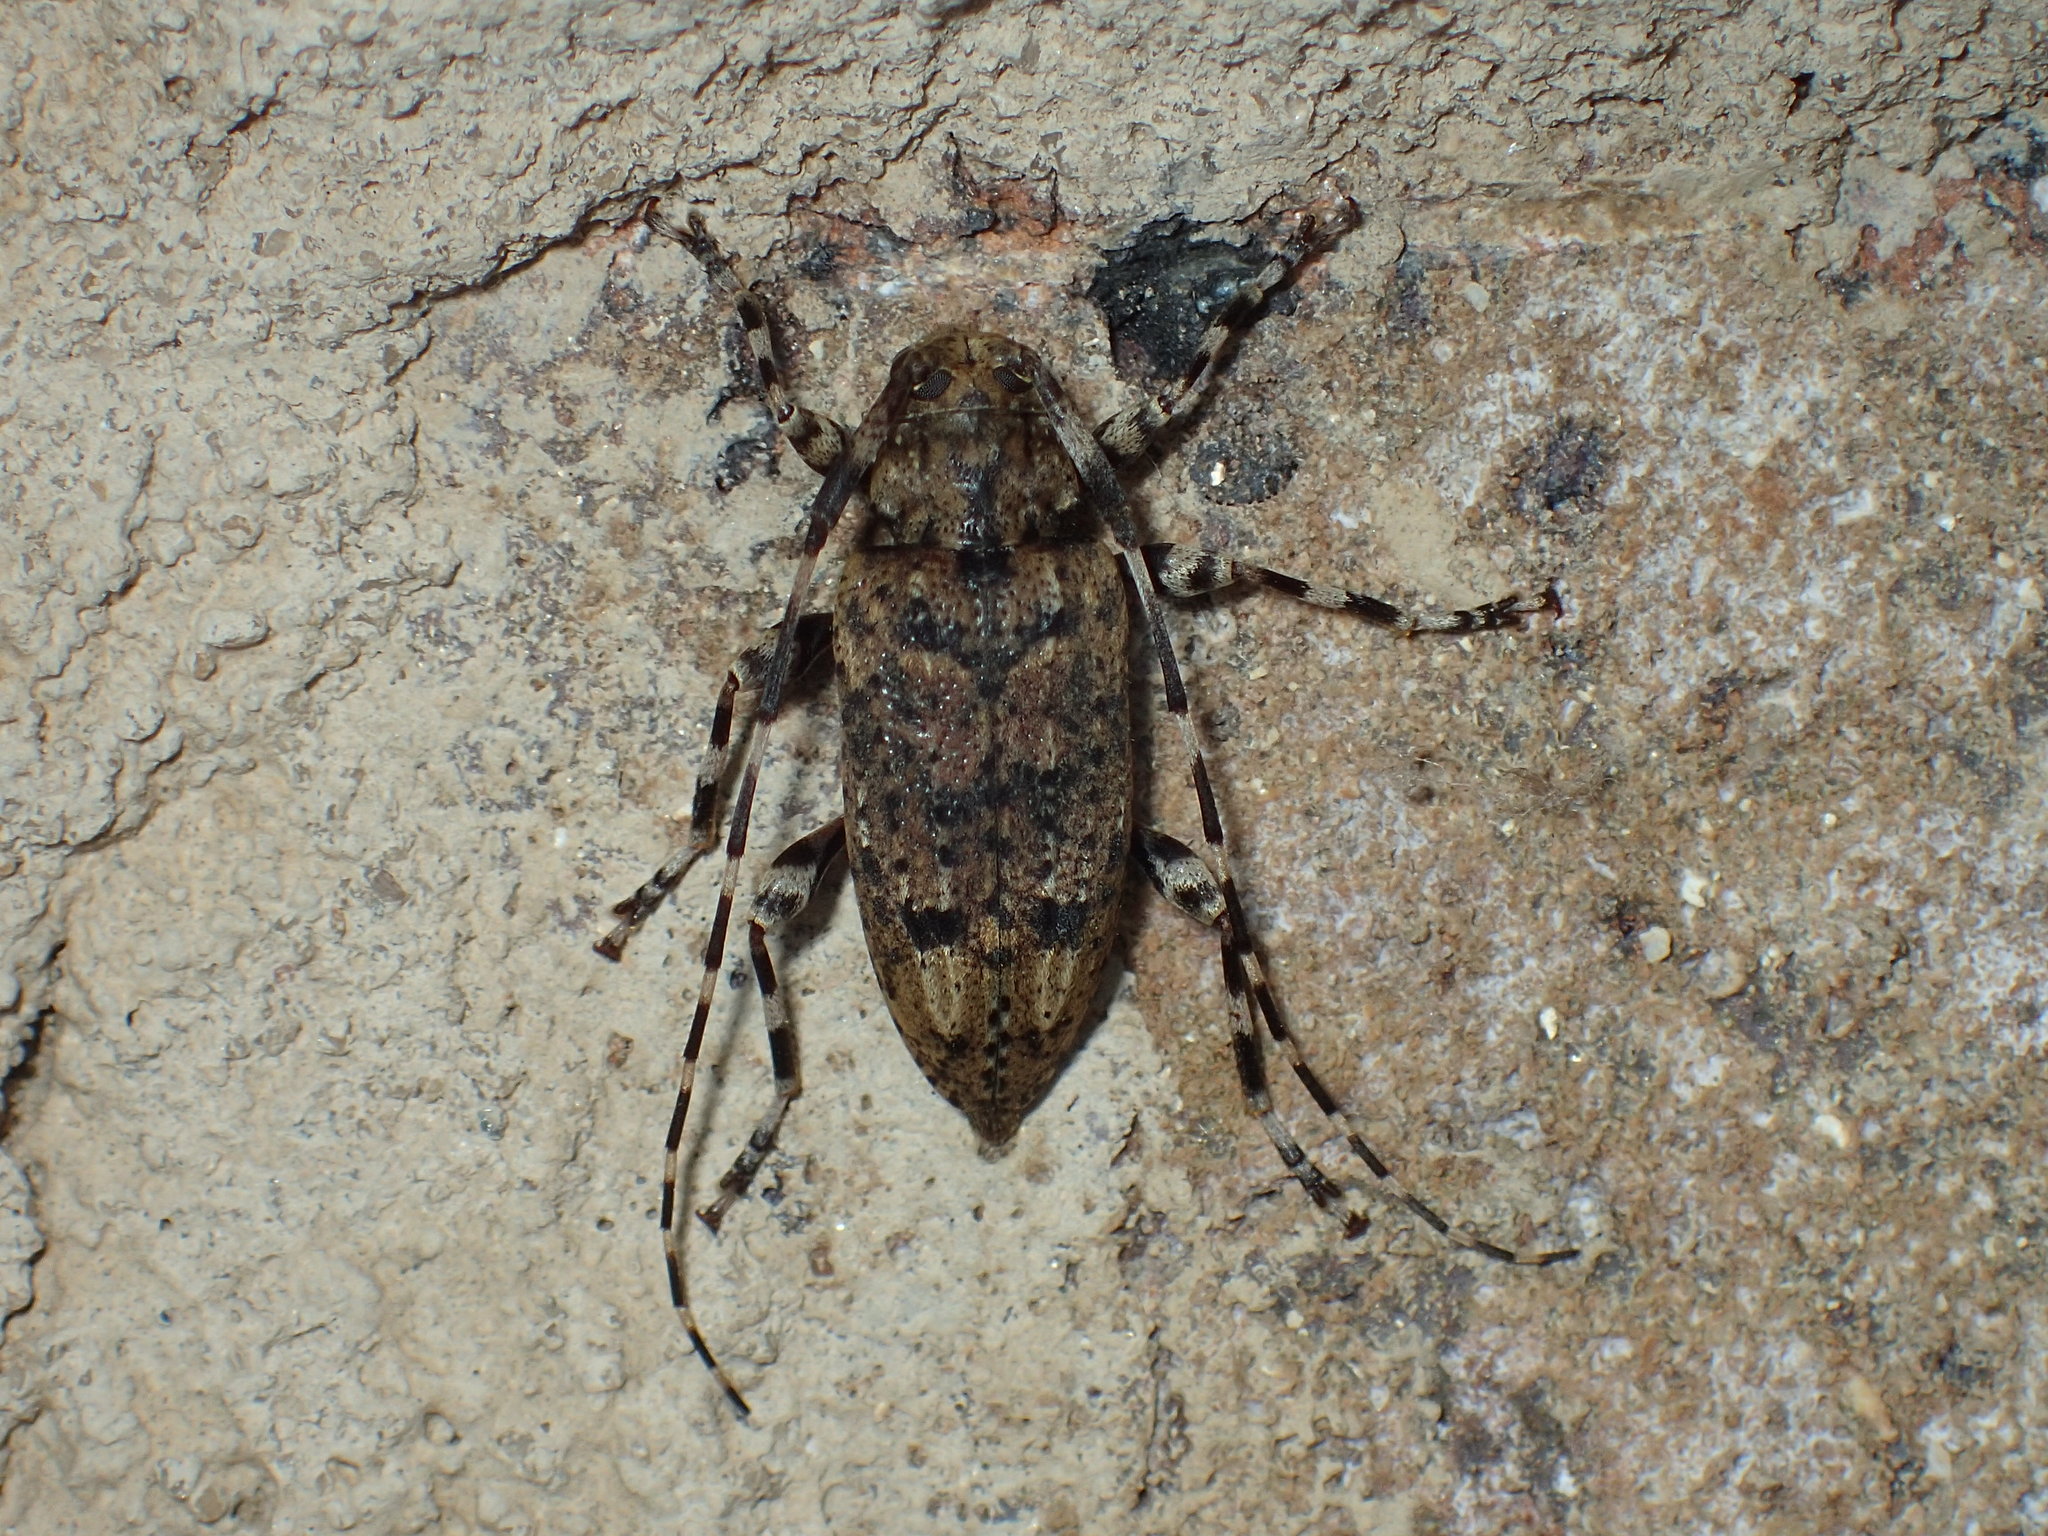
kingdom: Animalia
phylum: Arthropoda
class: Insecta
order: Coleoptera
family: Cerambycidae
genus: Astyleiopus
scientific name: Astyleiopus variegatus
